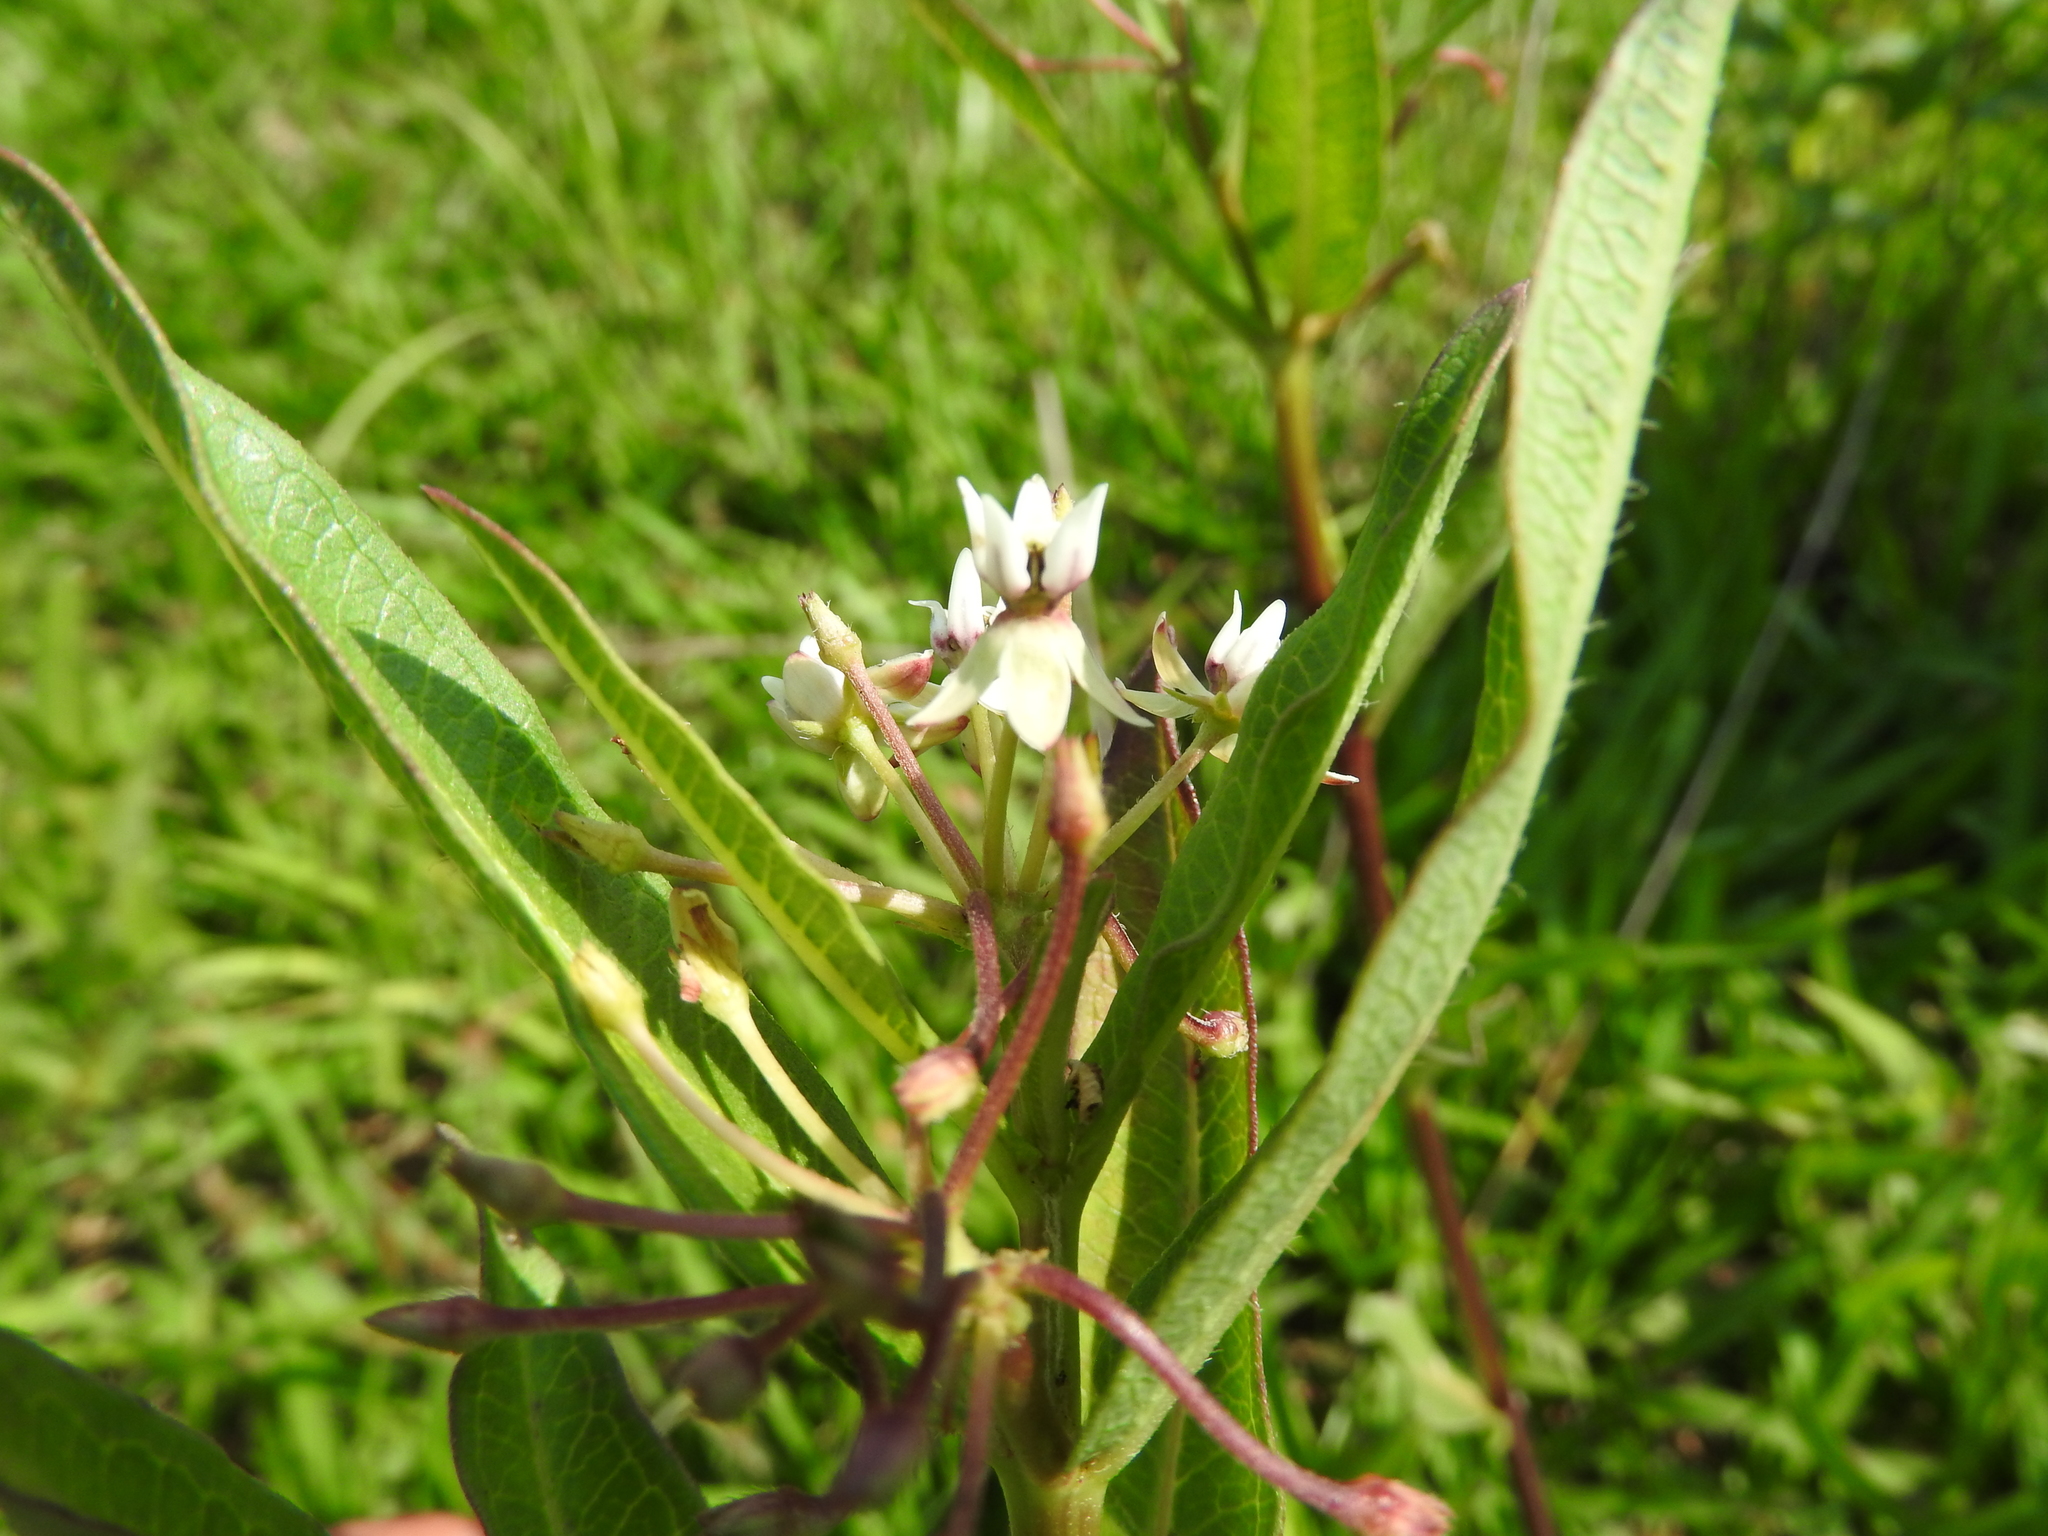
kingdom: Plantae
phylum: Tracheophyta
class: Magnoliopsida
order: Gentianales
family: Apocynaceae
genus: Asclepias
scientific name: Asclepias pratensis
